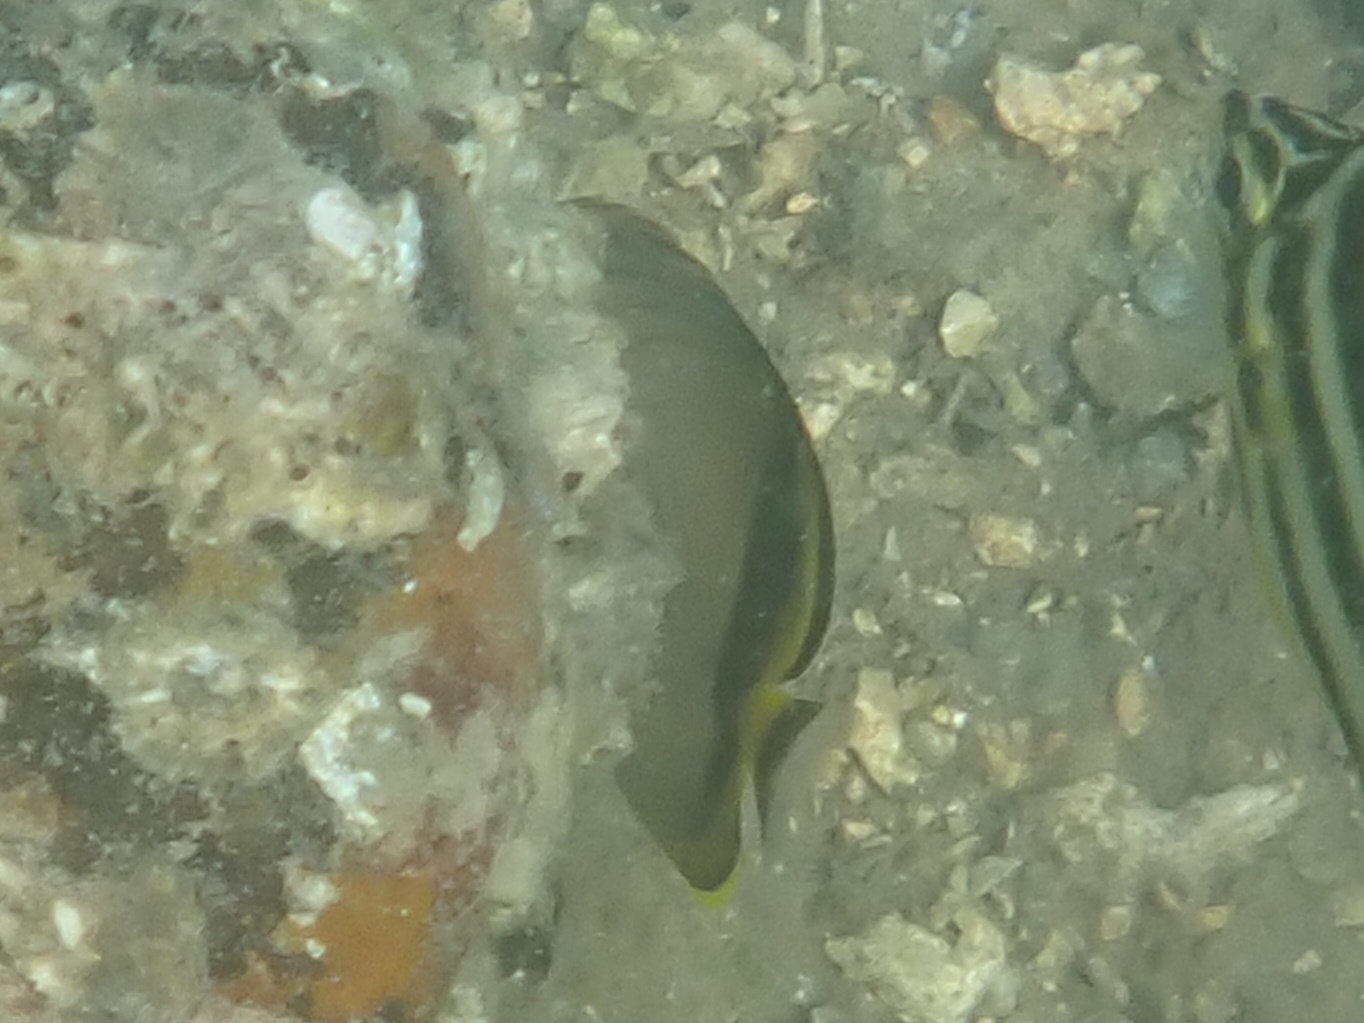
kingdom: Animalia
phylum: Chordata
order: Perciformes
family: Chaetodontidae
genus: Chaetodon
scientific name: Chaetodon vagabundus
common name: Vagabond butterflyfish
